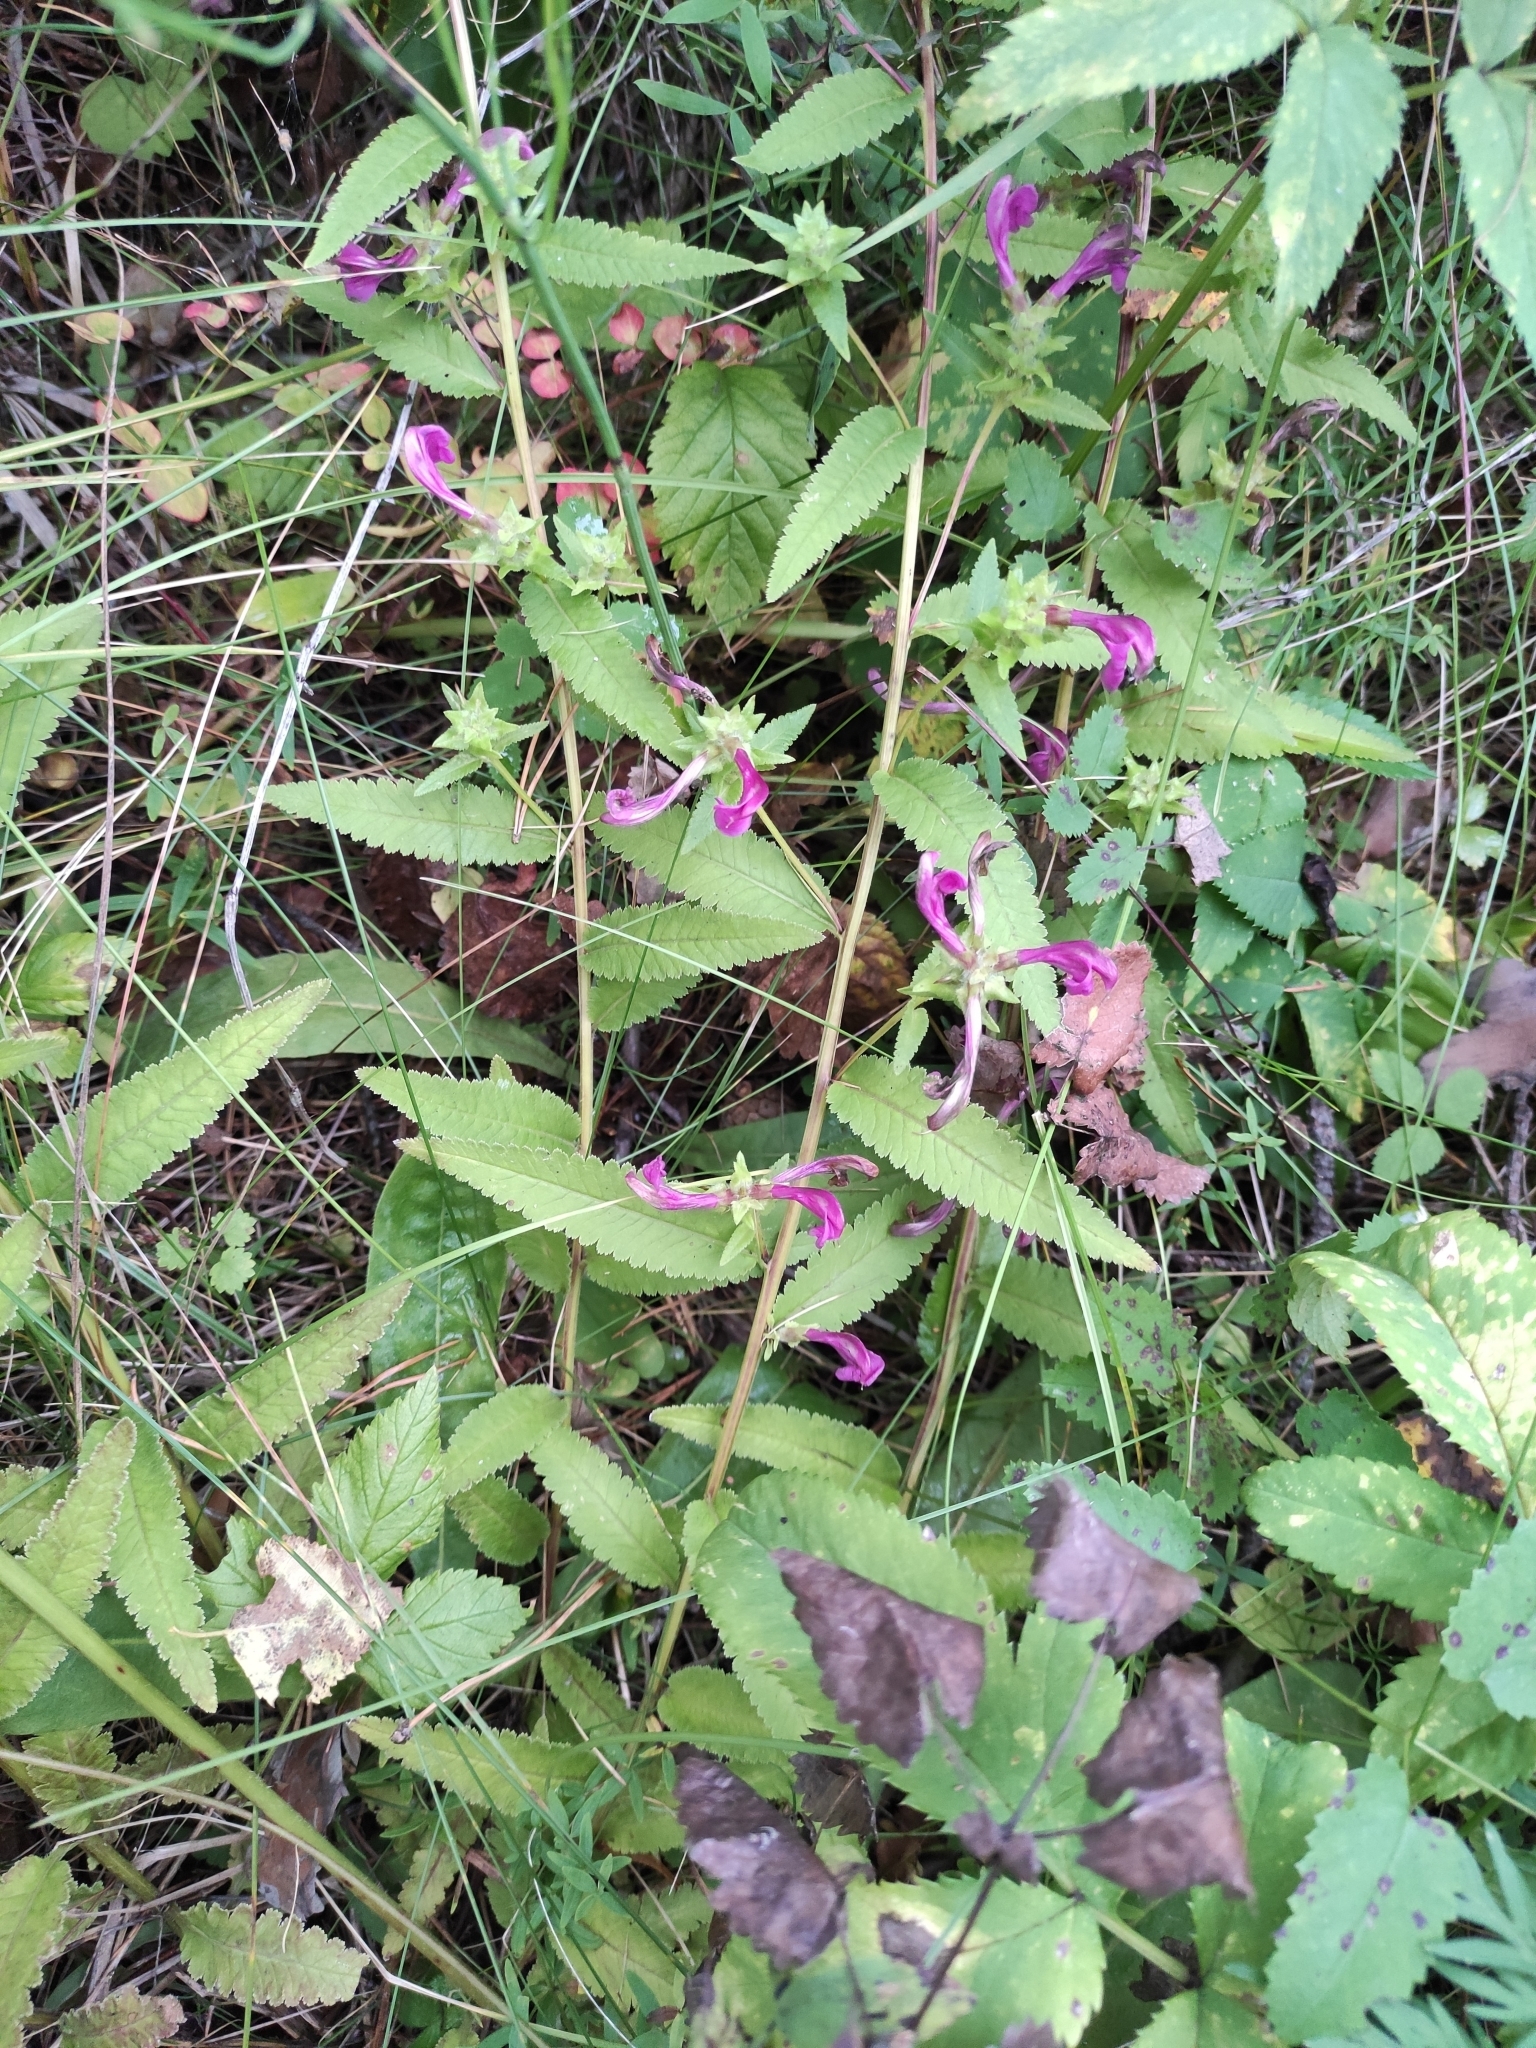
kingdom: Plantae
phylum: Tracheophyta
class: Magnoliopsida
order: Lamiales
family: Orobanchaceae
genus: Pedicularis
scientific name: Pedicularis resupinata
